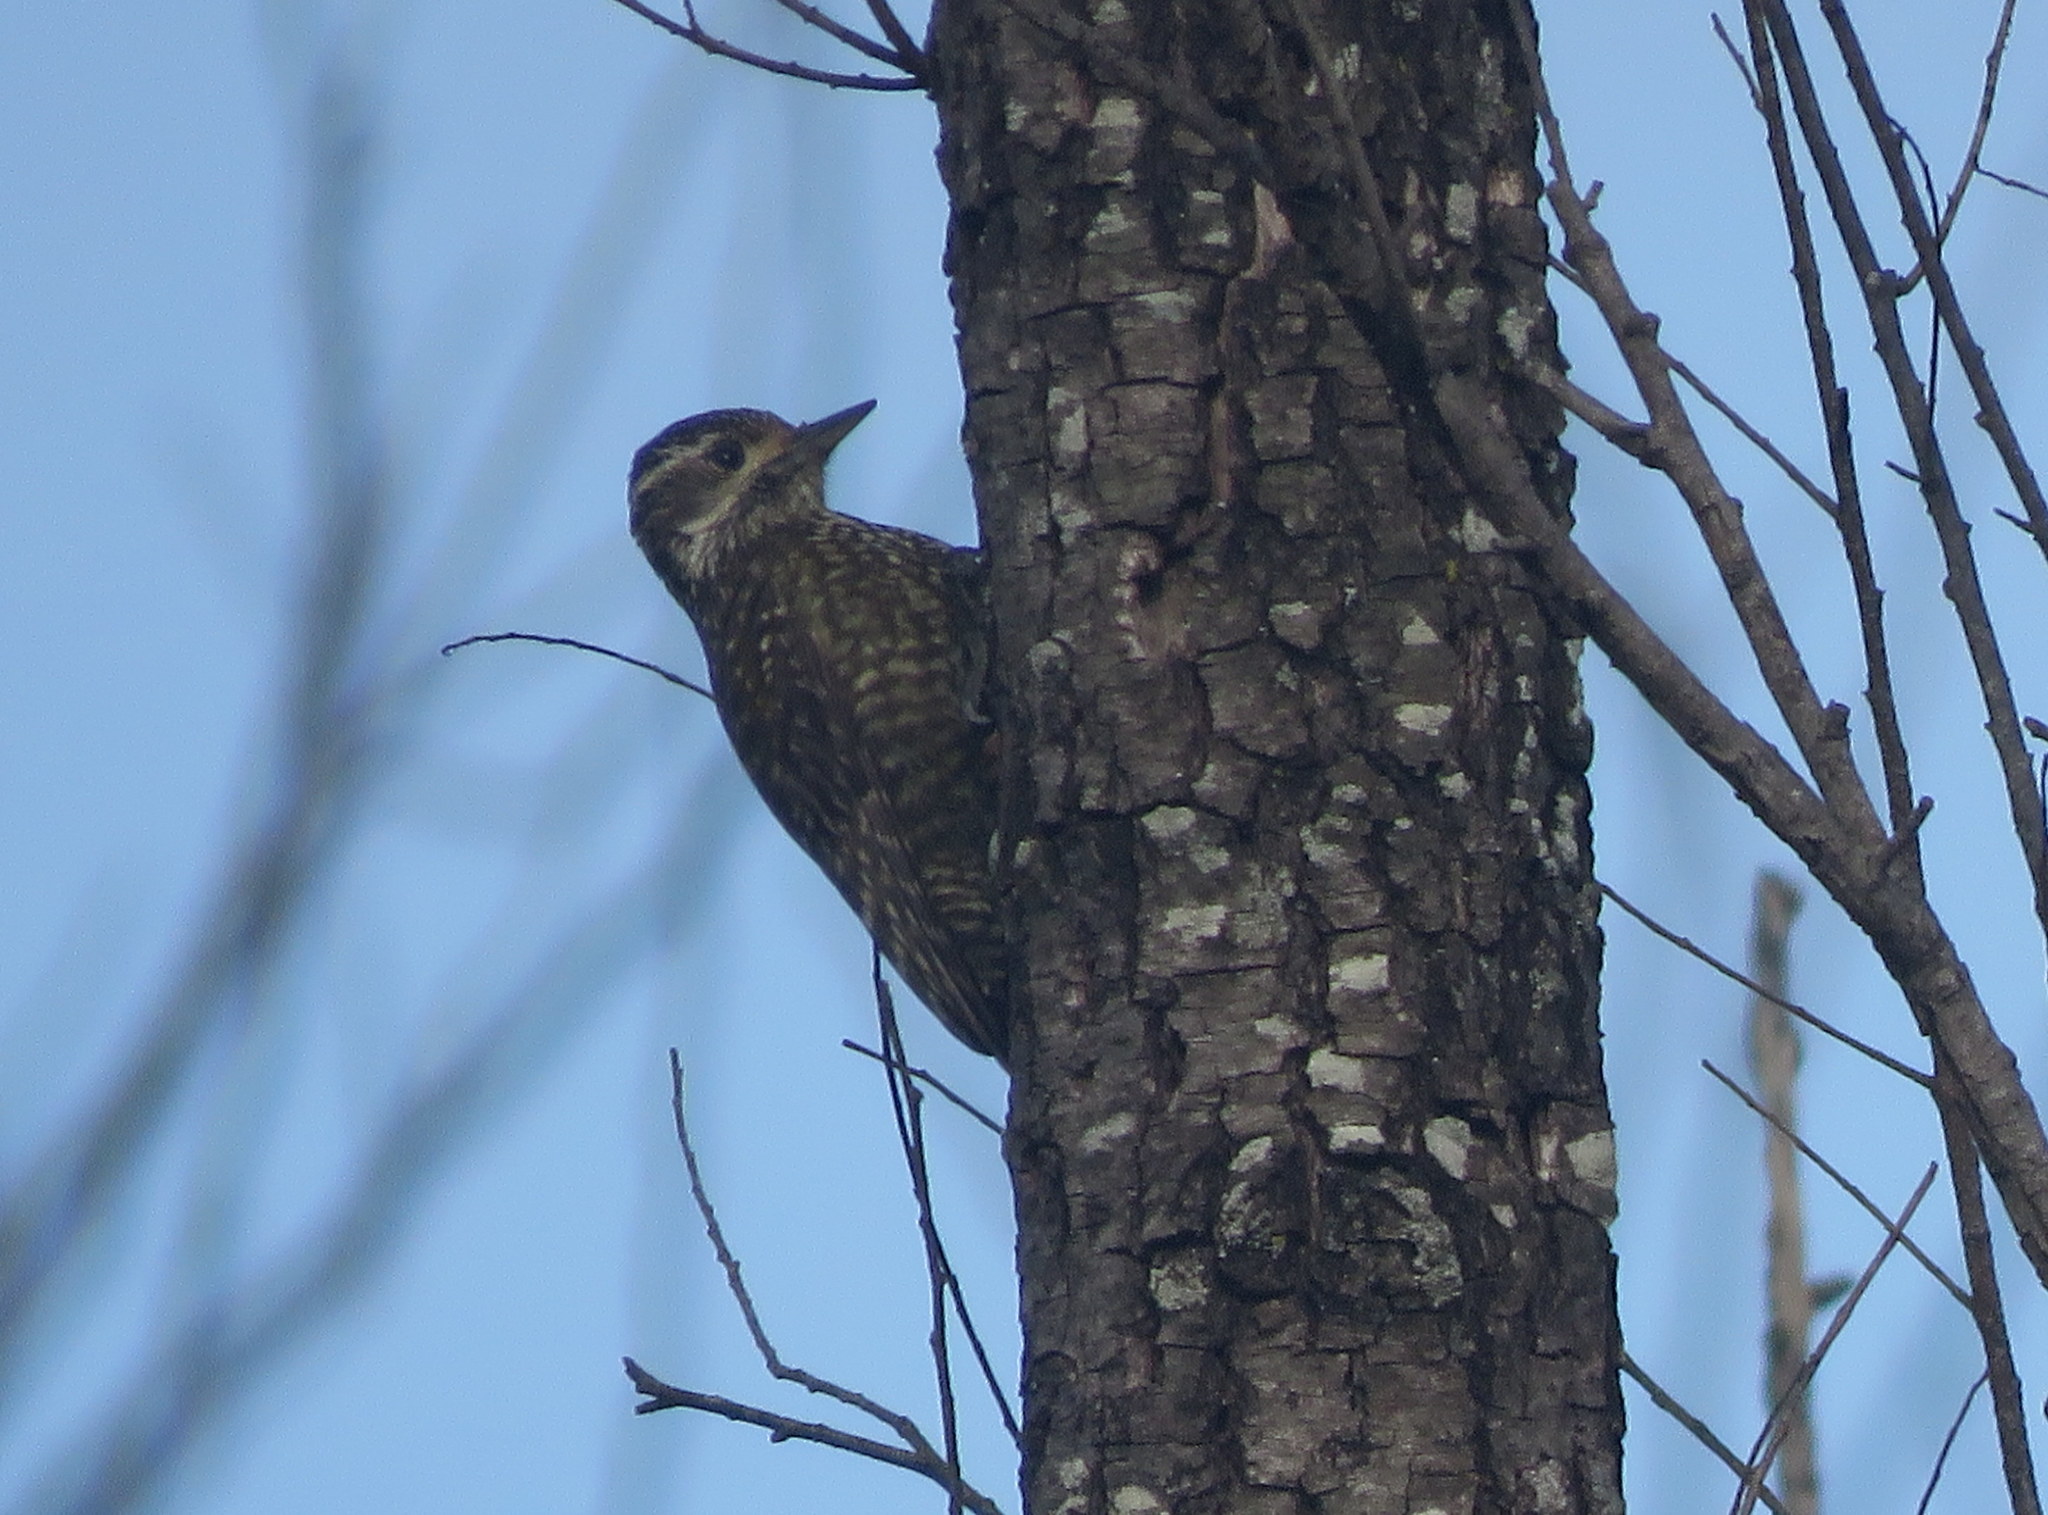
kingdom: Animalia
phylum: Chordata
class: Aves
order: Piciformes
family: Picidae
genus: Veniliornis
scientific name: Veniliornis spilogaster
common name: White-spotted woodpecker
